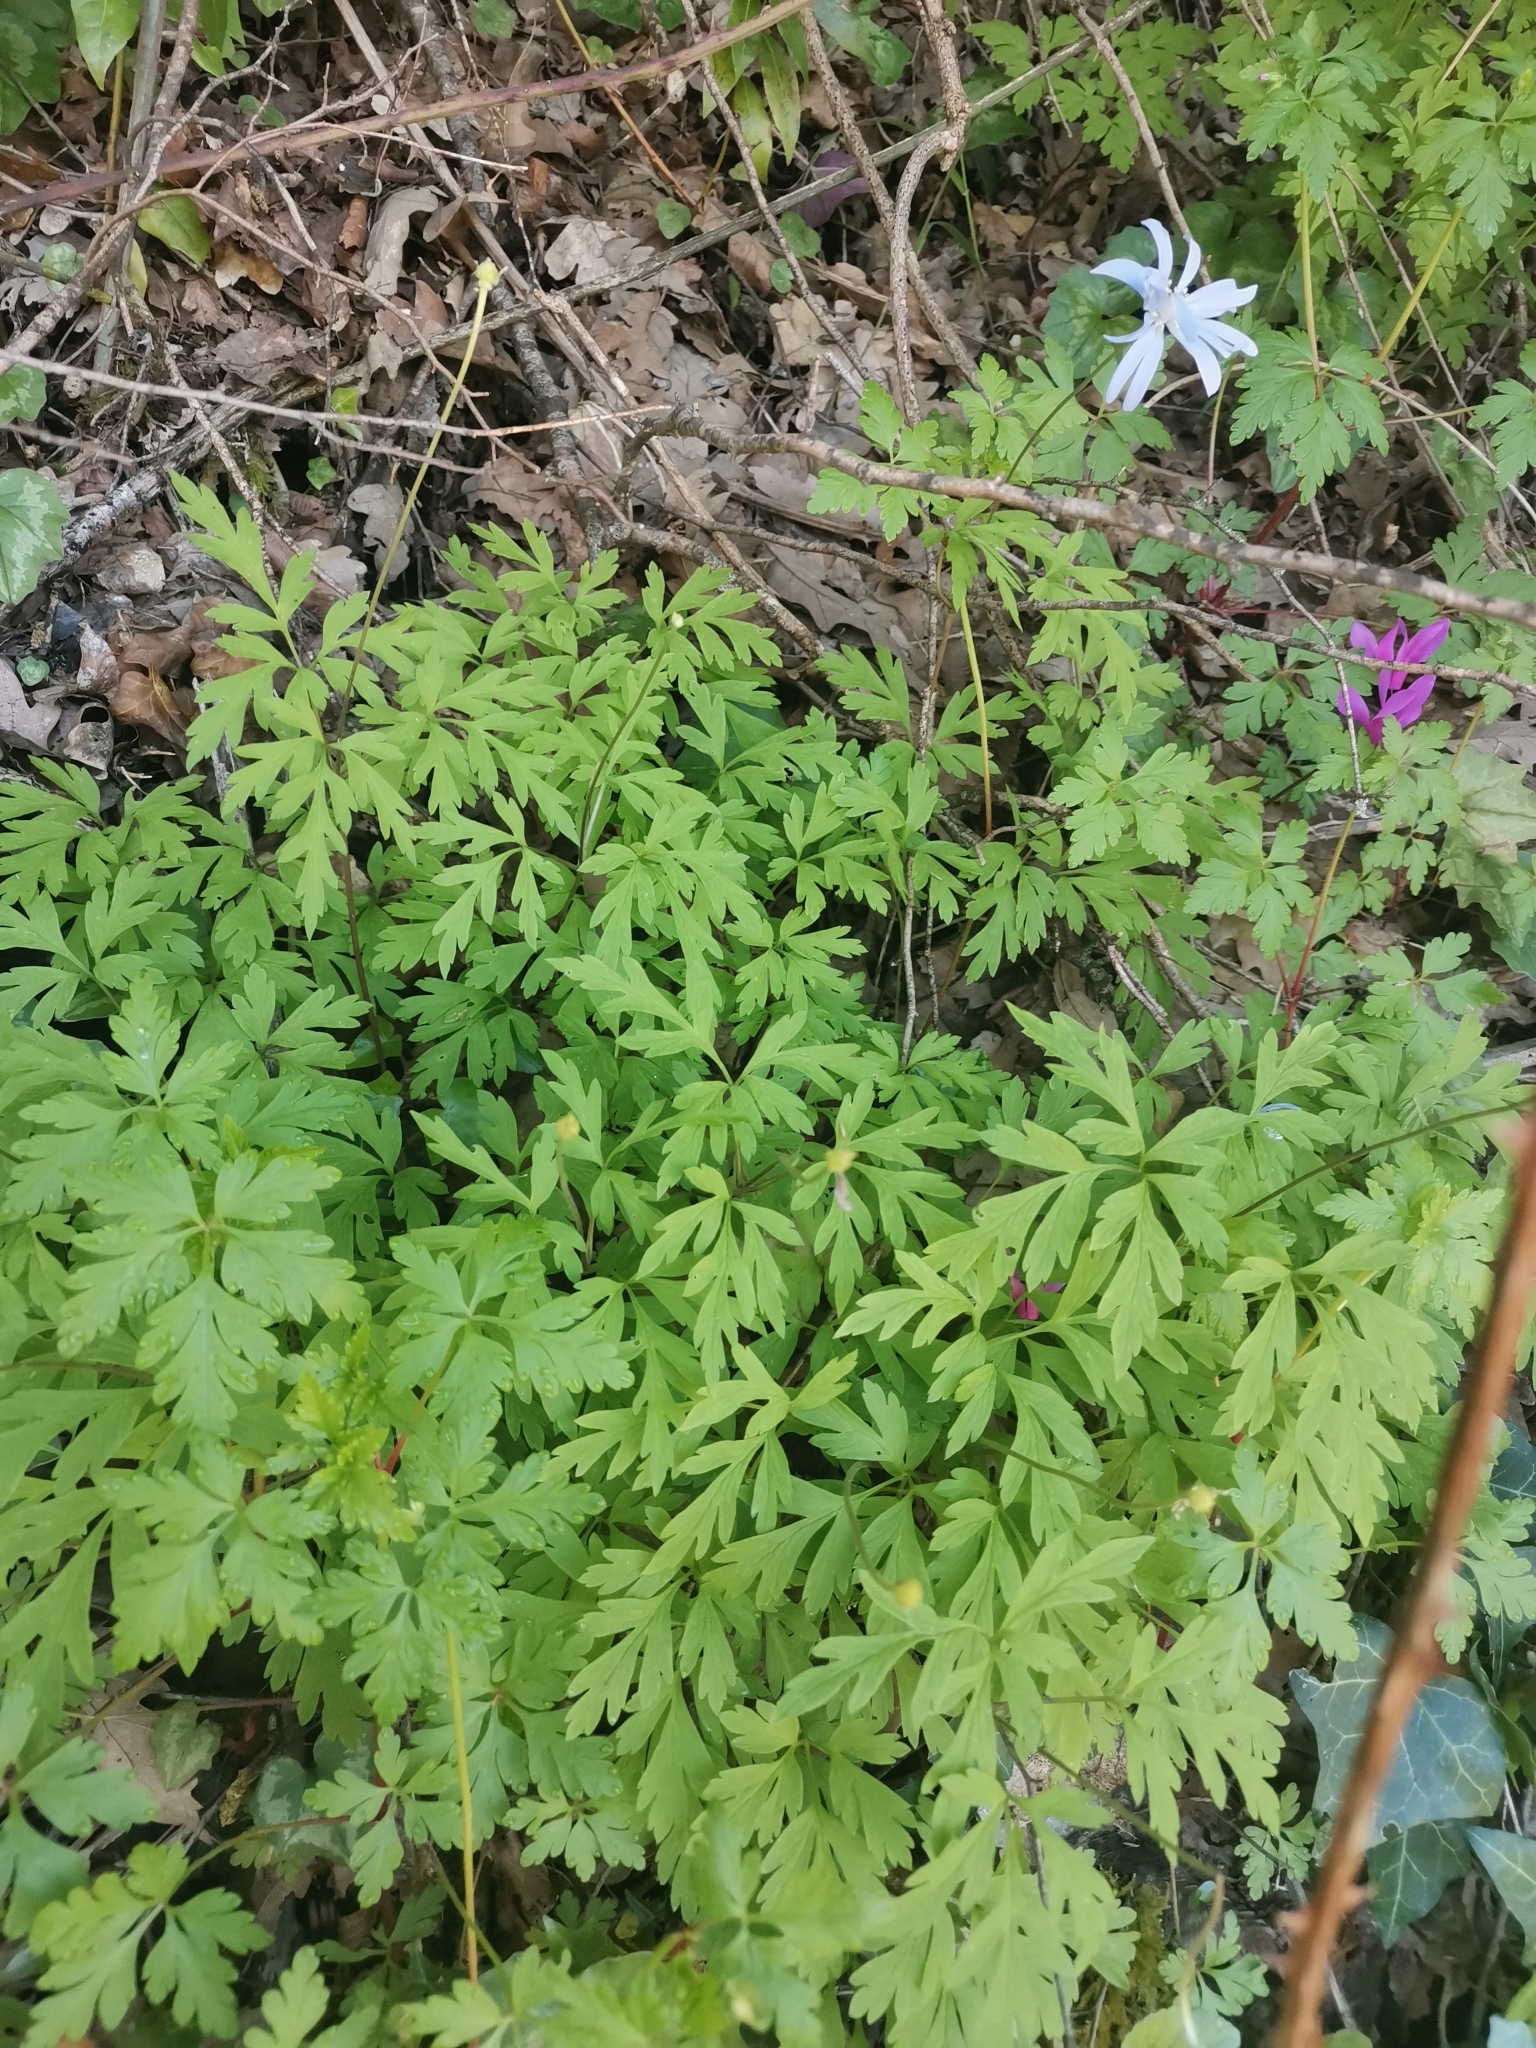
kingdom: Plantae
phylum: Tracheophyta
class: Magnoliopsida
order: Ranunculales
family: Ranunculaceae
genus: Anemone
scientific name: Anemone apennina
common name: Blue anemone
